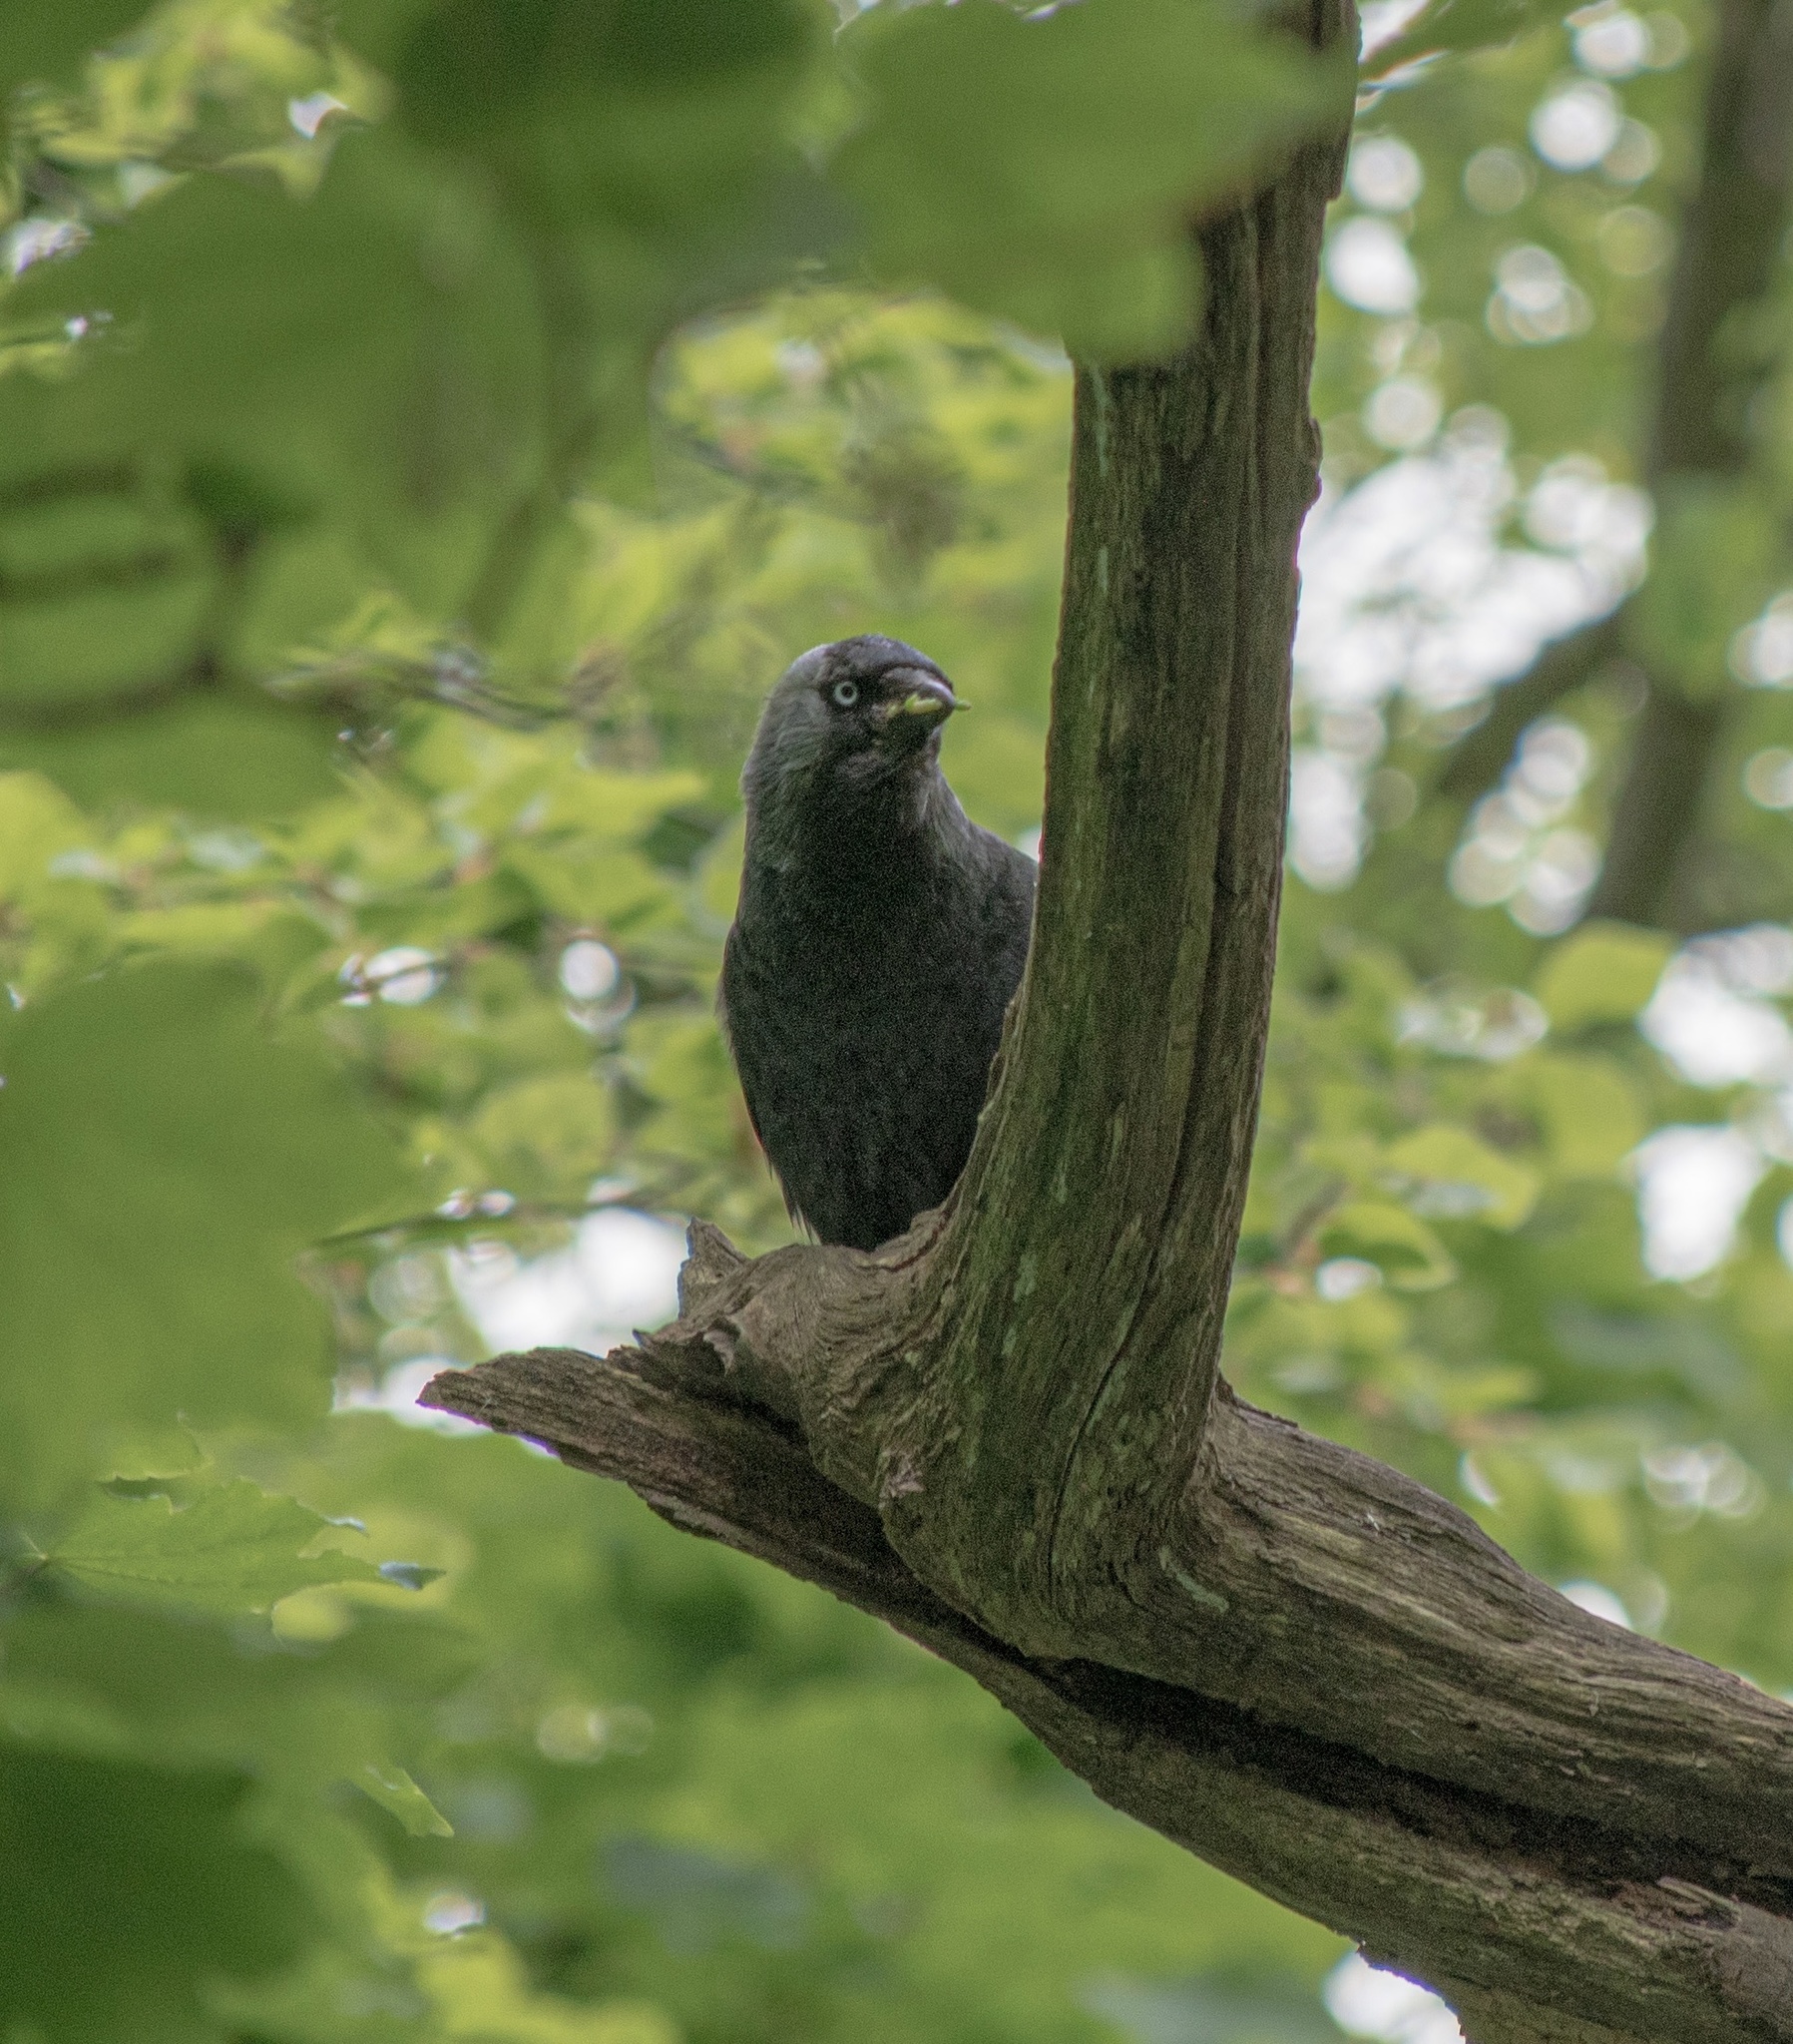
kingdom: Animalia
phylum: Chordata
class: Aves
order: Passeriformes
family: Corvidae
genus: Coloeus
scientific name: Coloeus monedula
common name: Western jackdaw
